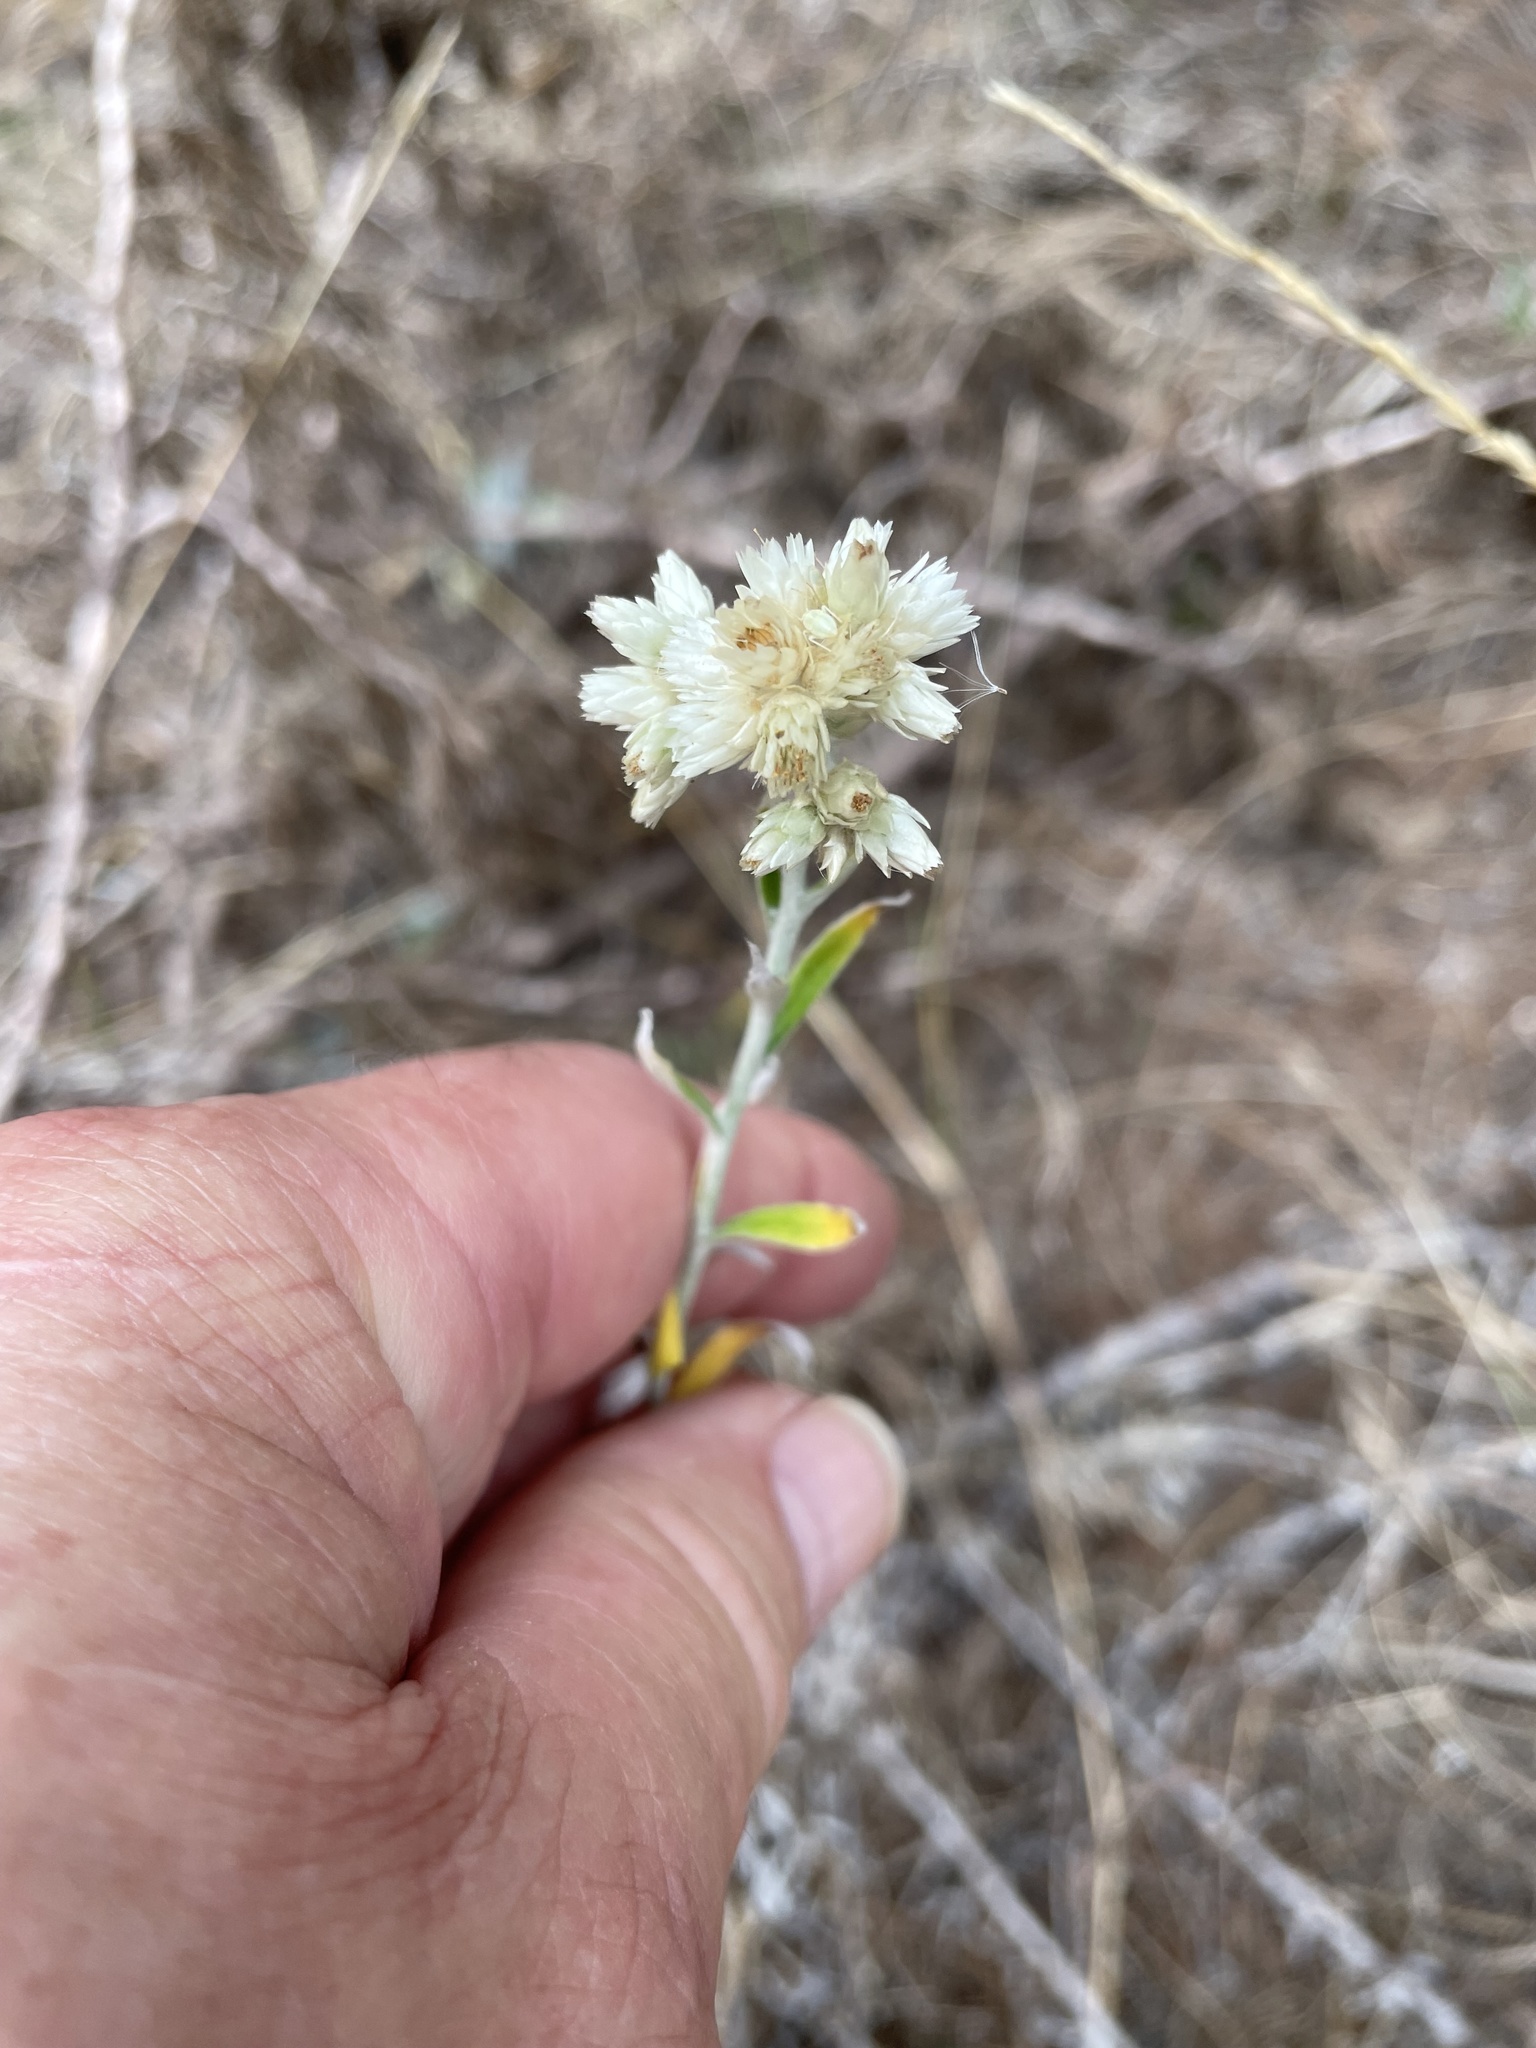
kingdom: Plantae
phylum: Tracheophyta
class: Magnoliopsida
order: Asterales
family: Asteraceae
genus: Pseudognaphalium
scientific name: Pseudognaphalium obtusifolium
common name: Eastern rabbit-tobacco
